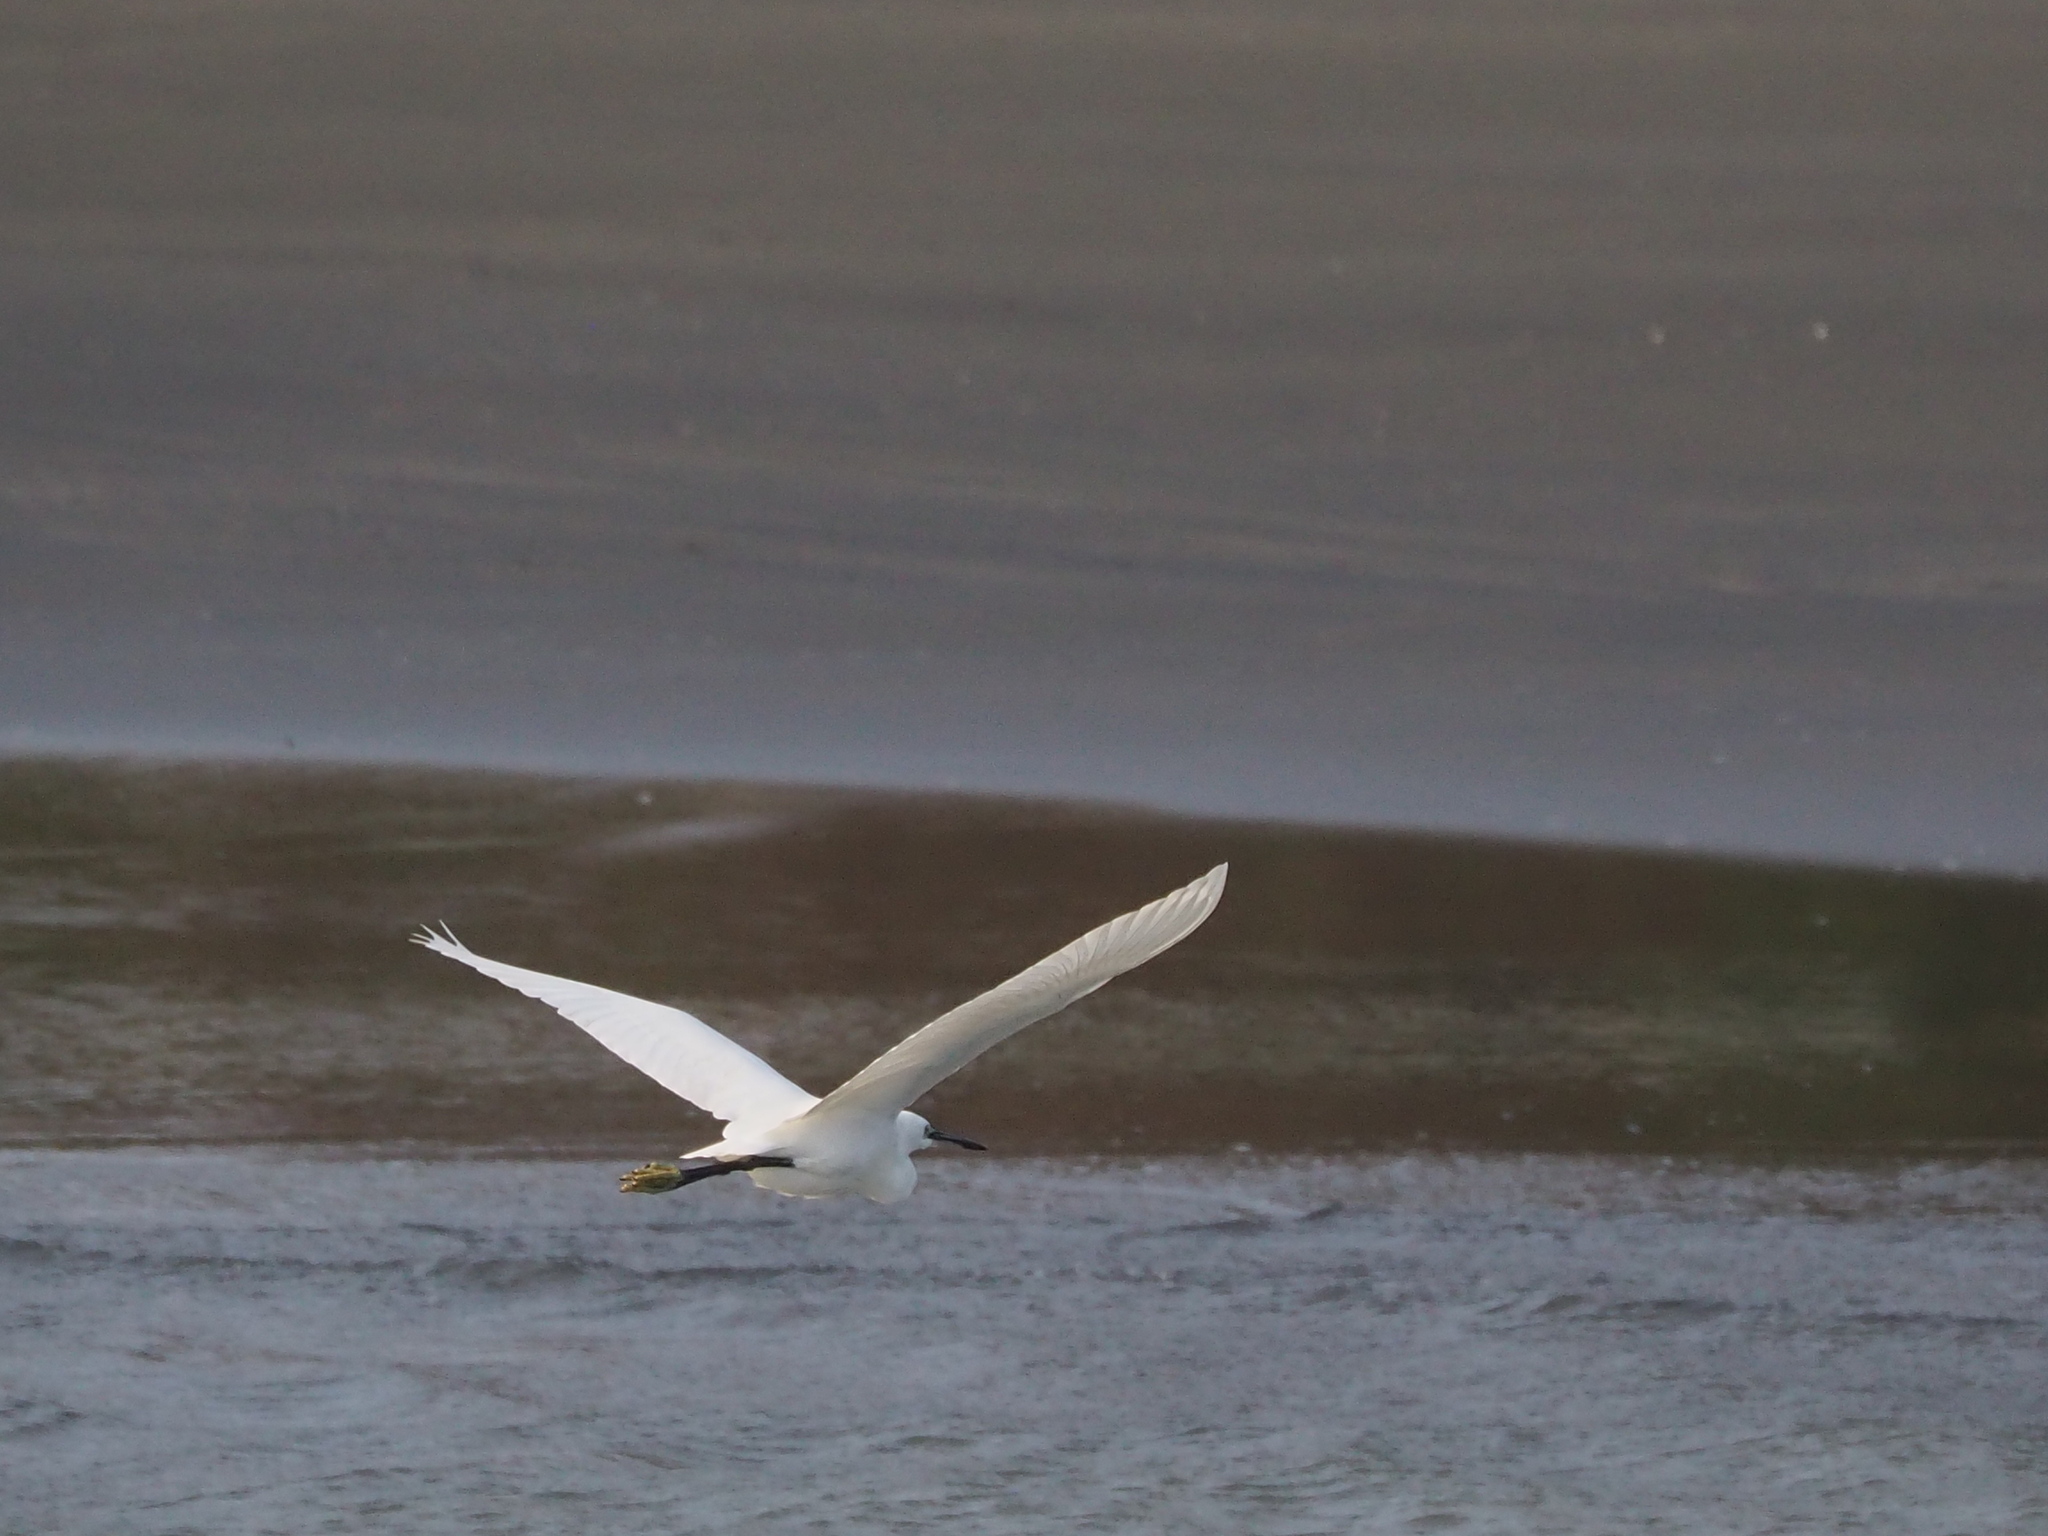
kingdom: Animalia
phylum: Chordata
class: Aves
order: Pelecaniformes
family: Ardeidae
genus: Egretta
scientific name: Egretta garzetta
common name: Little egret
